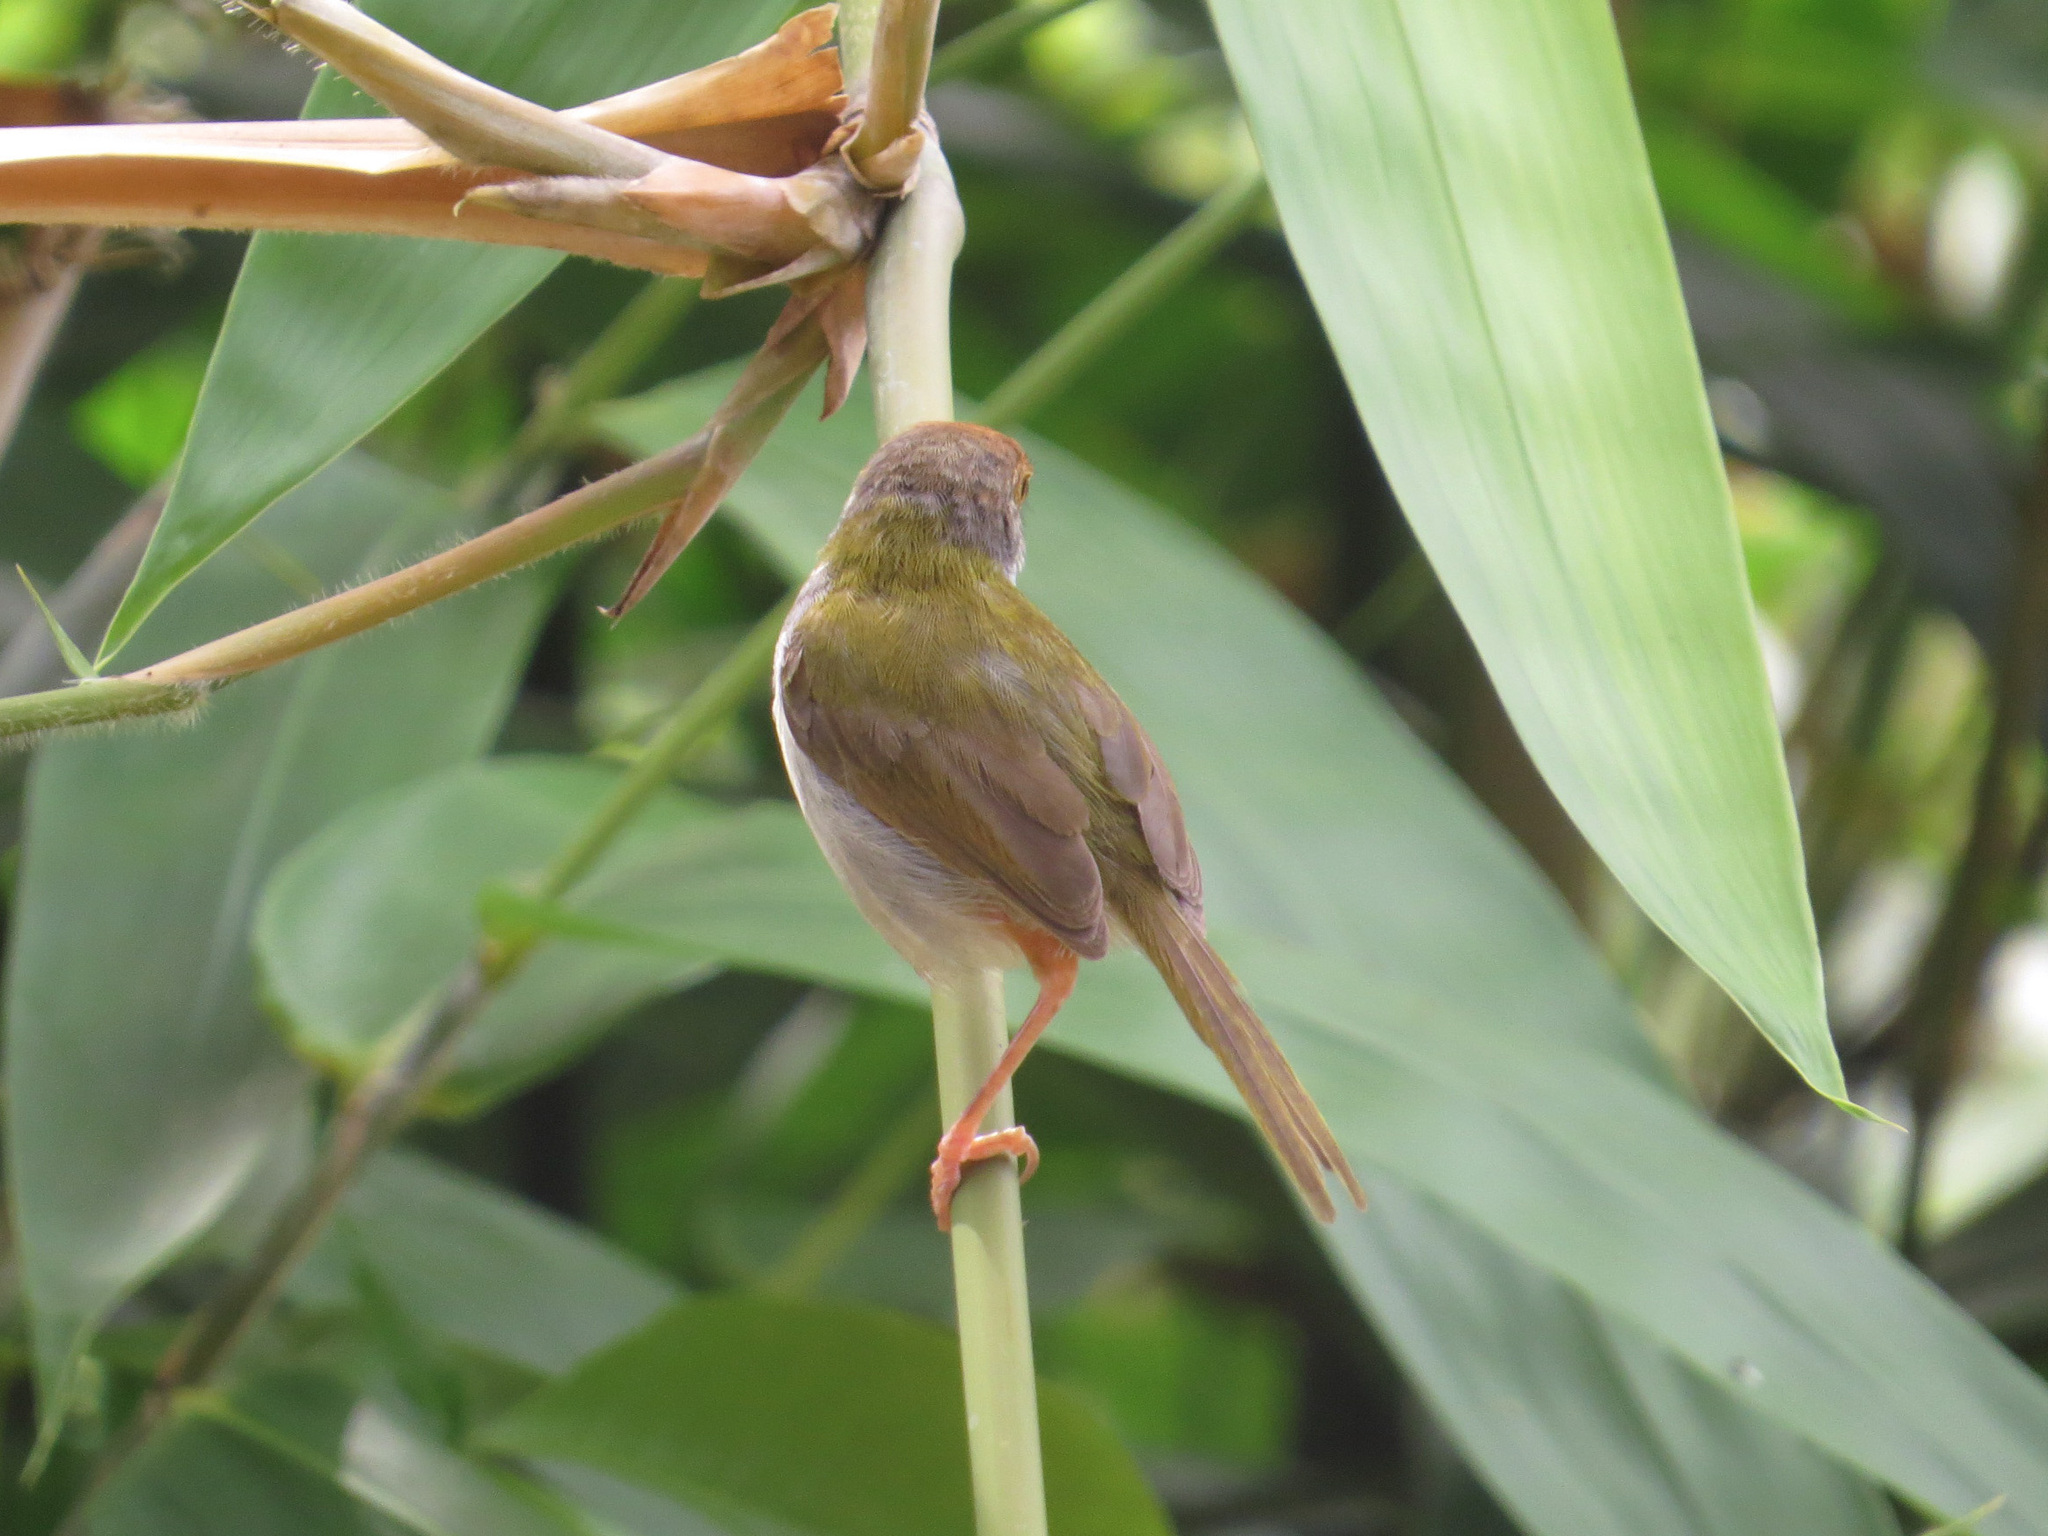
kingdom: Animalia
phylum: Chordata
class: Aves
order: Passeriformes
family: Cisticolidae
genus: Orthotomus
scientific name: Orthotomus sutorius
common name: Common tailorbird
